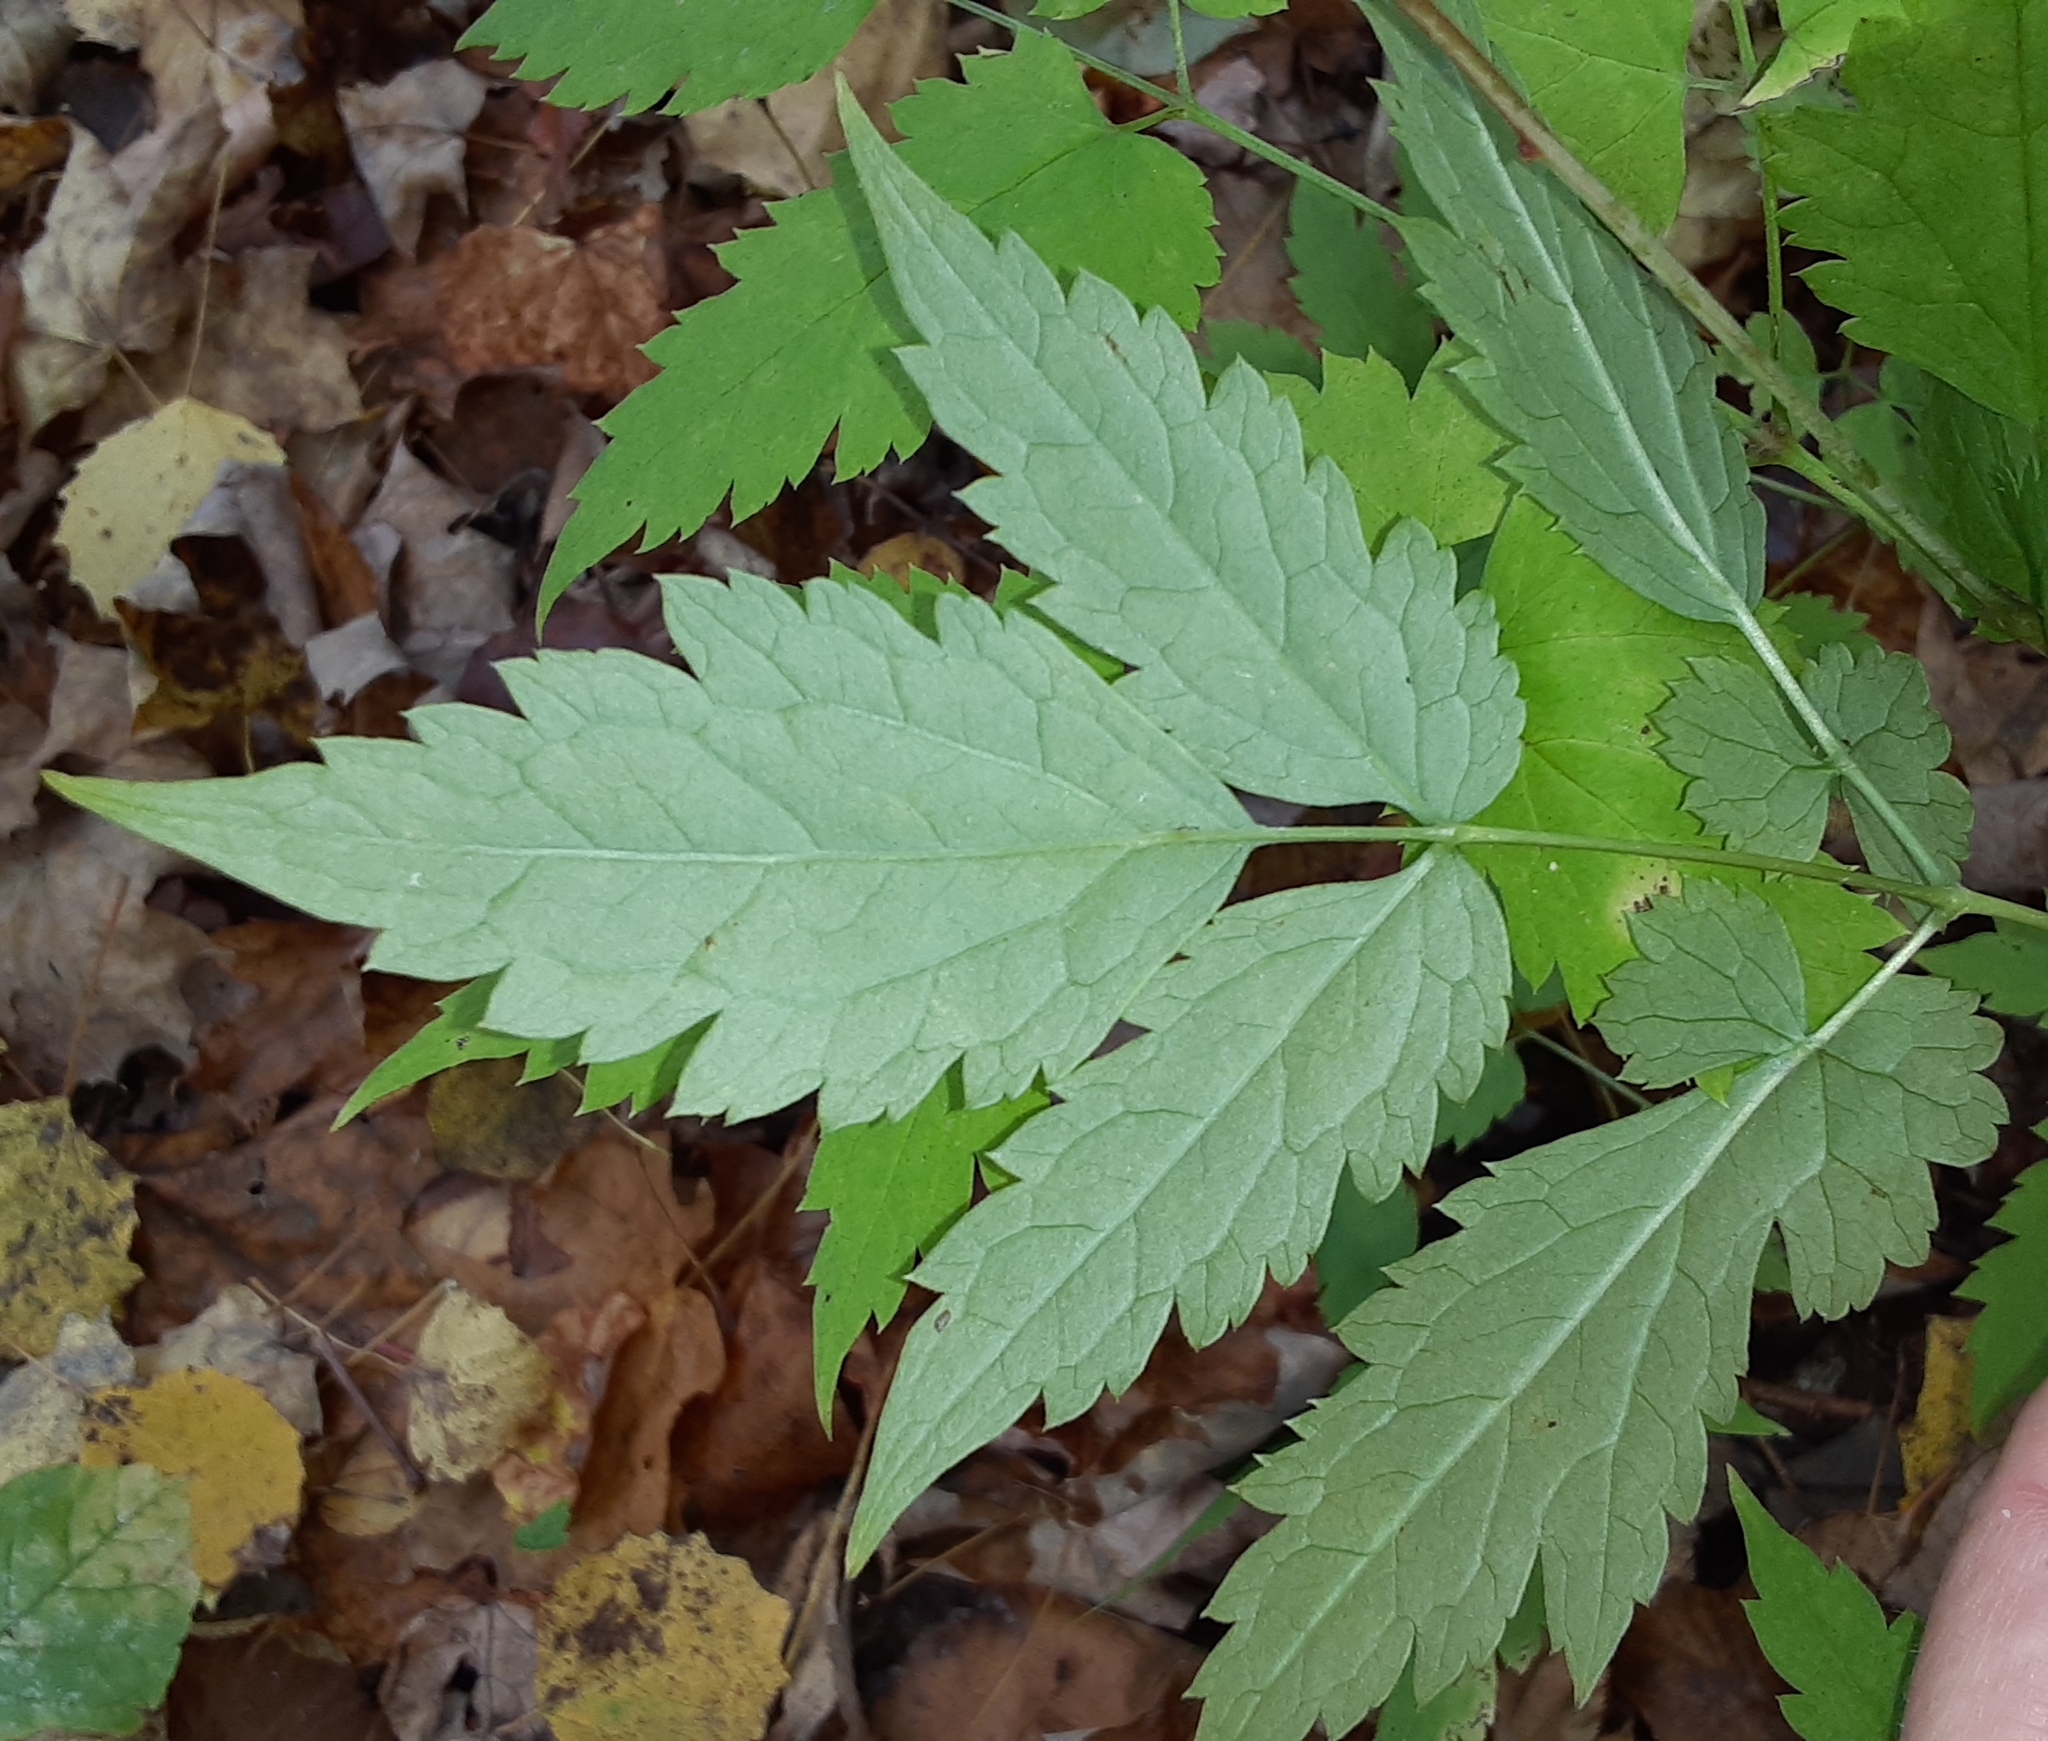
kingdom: Plantae
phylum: Tracheophyta
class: Magnoliopsida
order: Ranunculales
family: Ranunculaceae
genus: Actaea
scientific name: Actaea pachypoda
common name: Doll's-eyes
